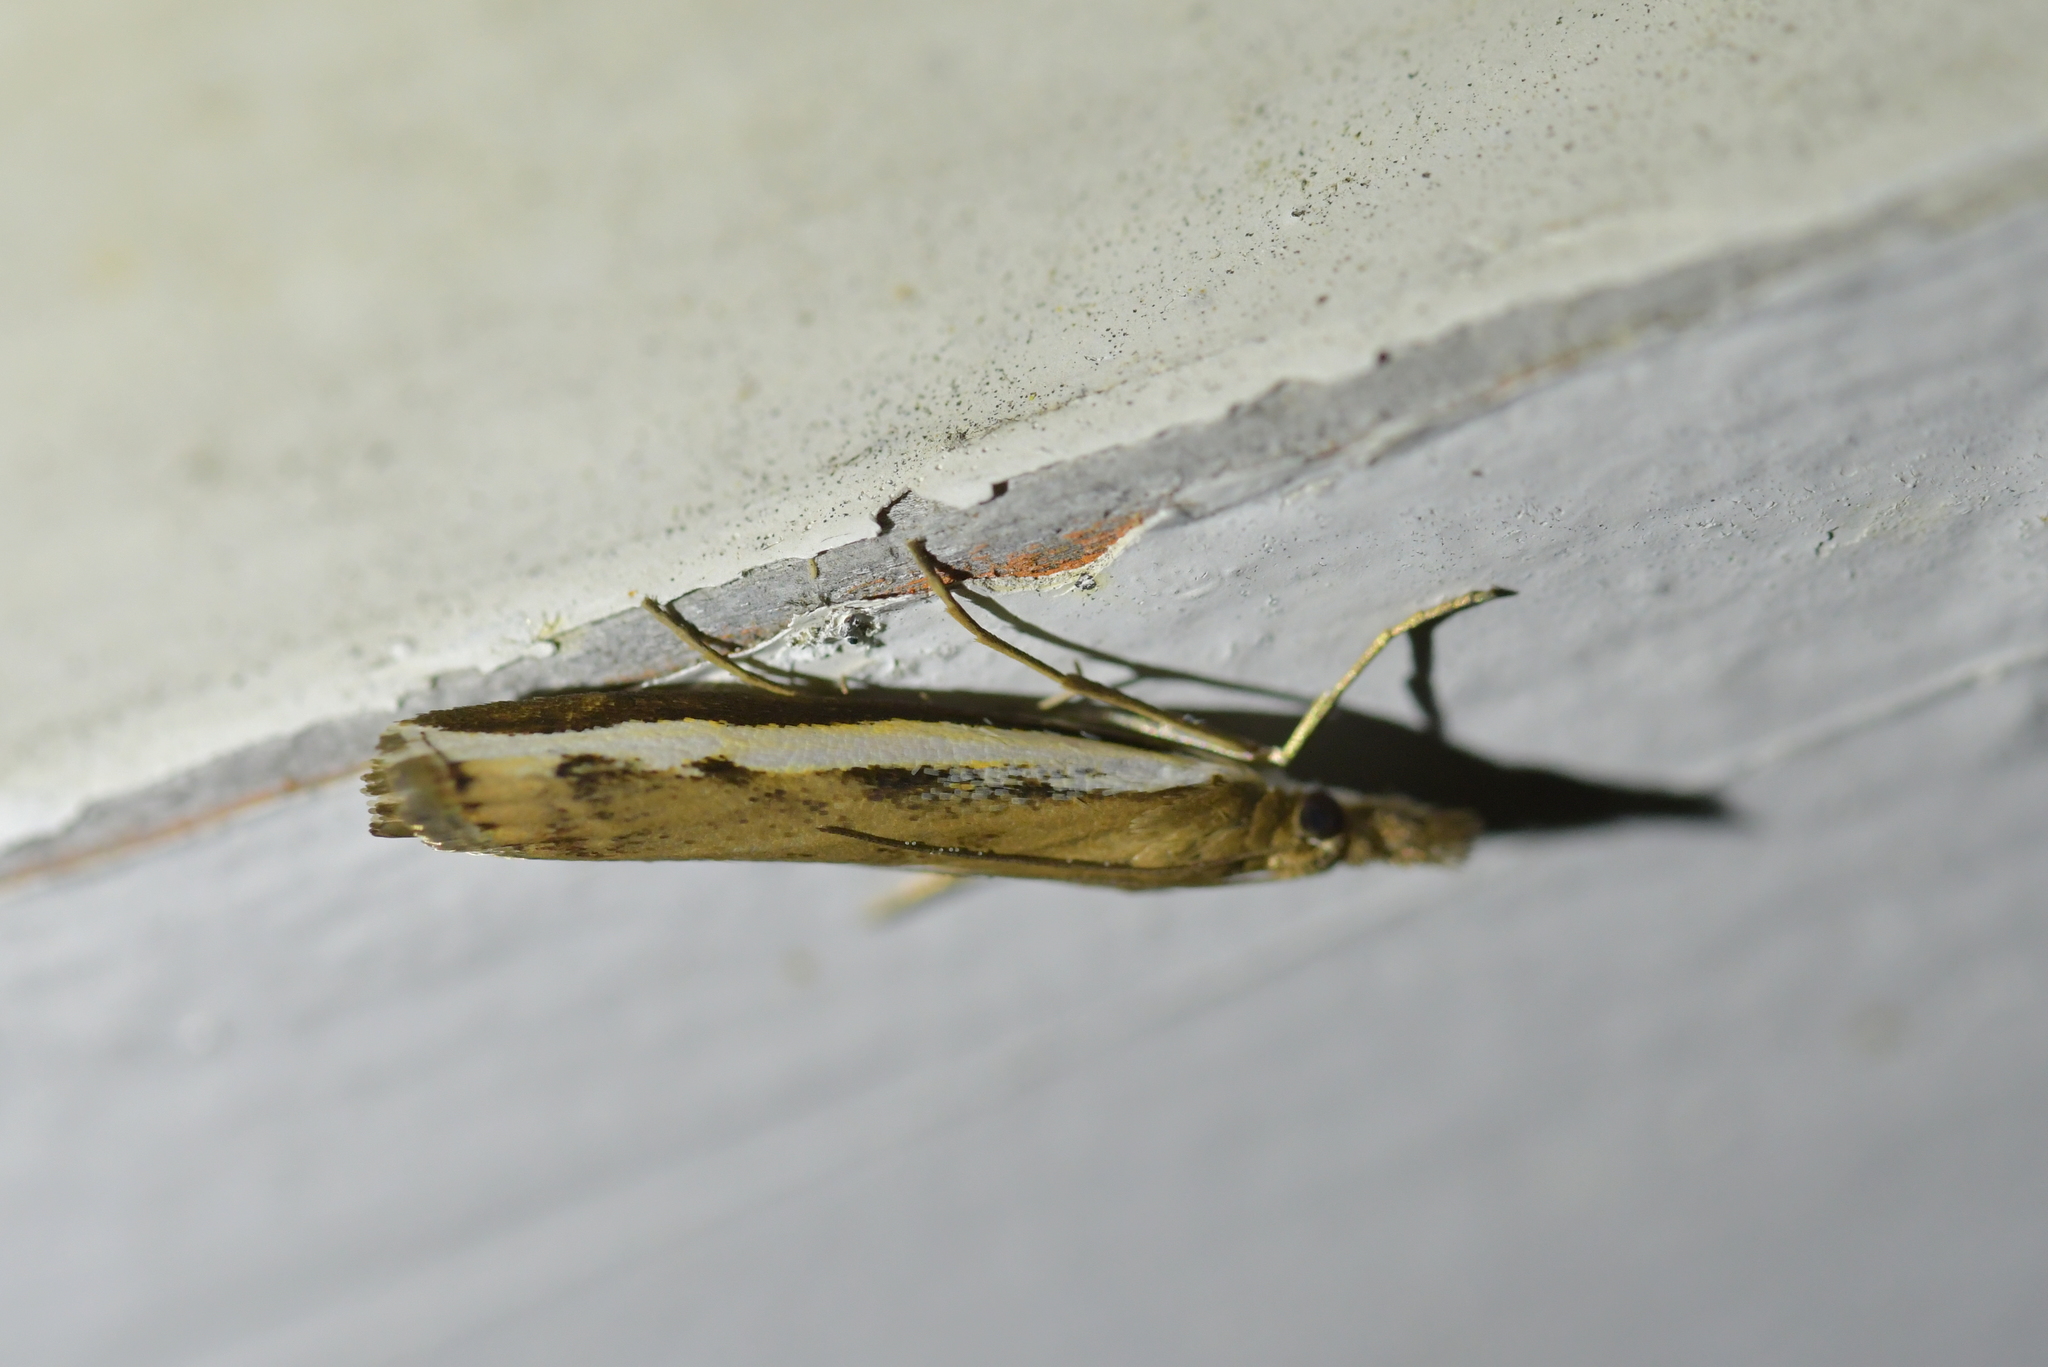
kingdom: Animalia
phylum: Arthropoda
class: Insecta
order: Lepidoptera
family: Crambidae
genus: Orocrambus
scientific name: Orocrambus flexuosellus
